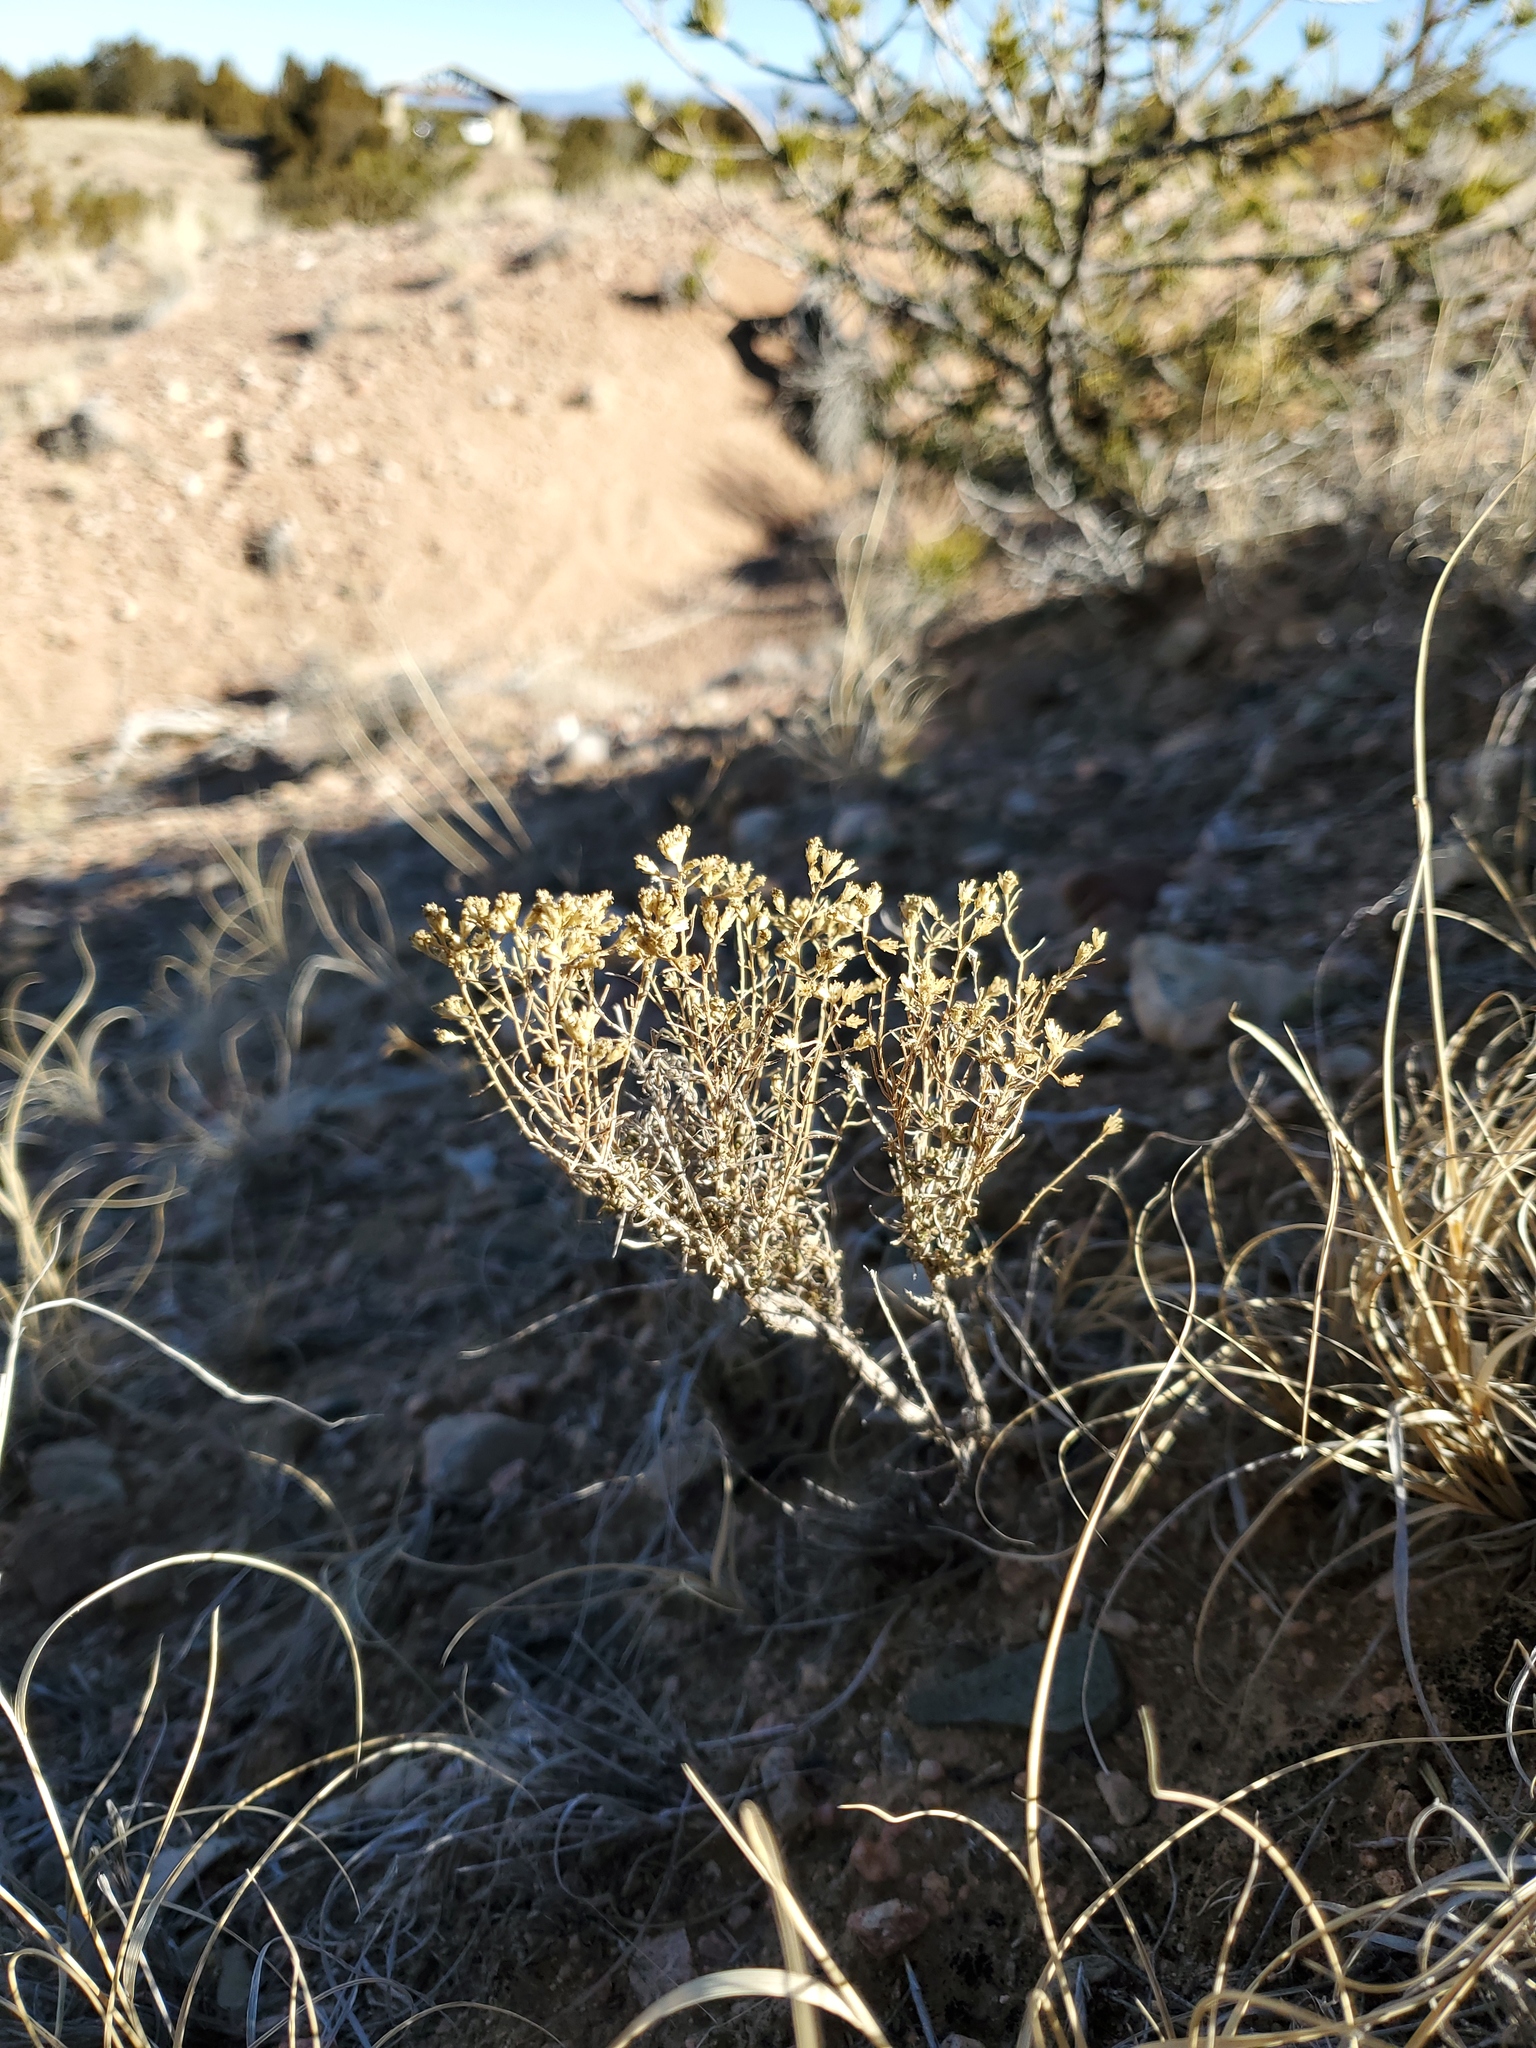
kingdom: Plantae
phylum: Tracheophyta
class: Magnoliopsida
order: Asterales
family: Asteraceae
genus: Gutierrezia
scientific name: Gutierrezia sarothrae
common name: Broom snakeweed
